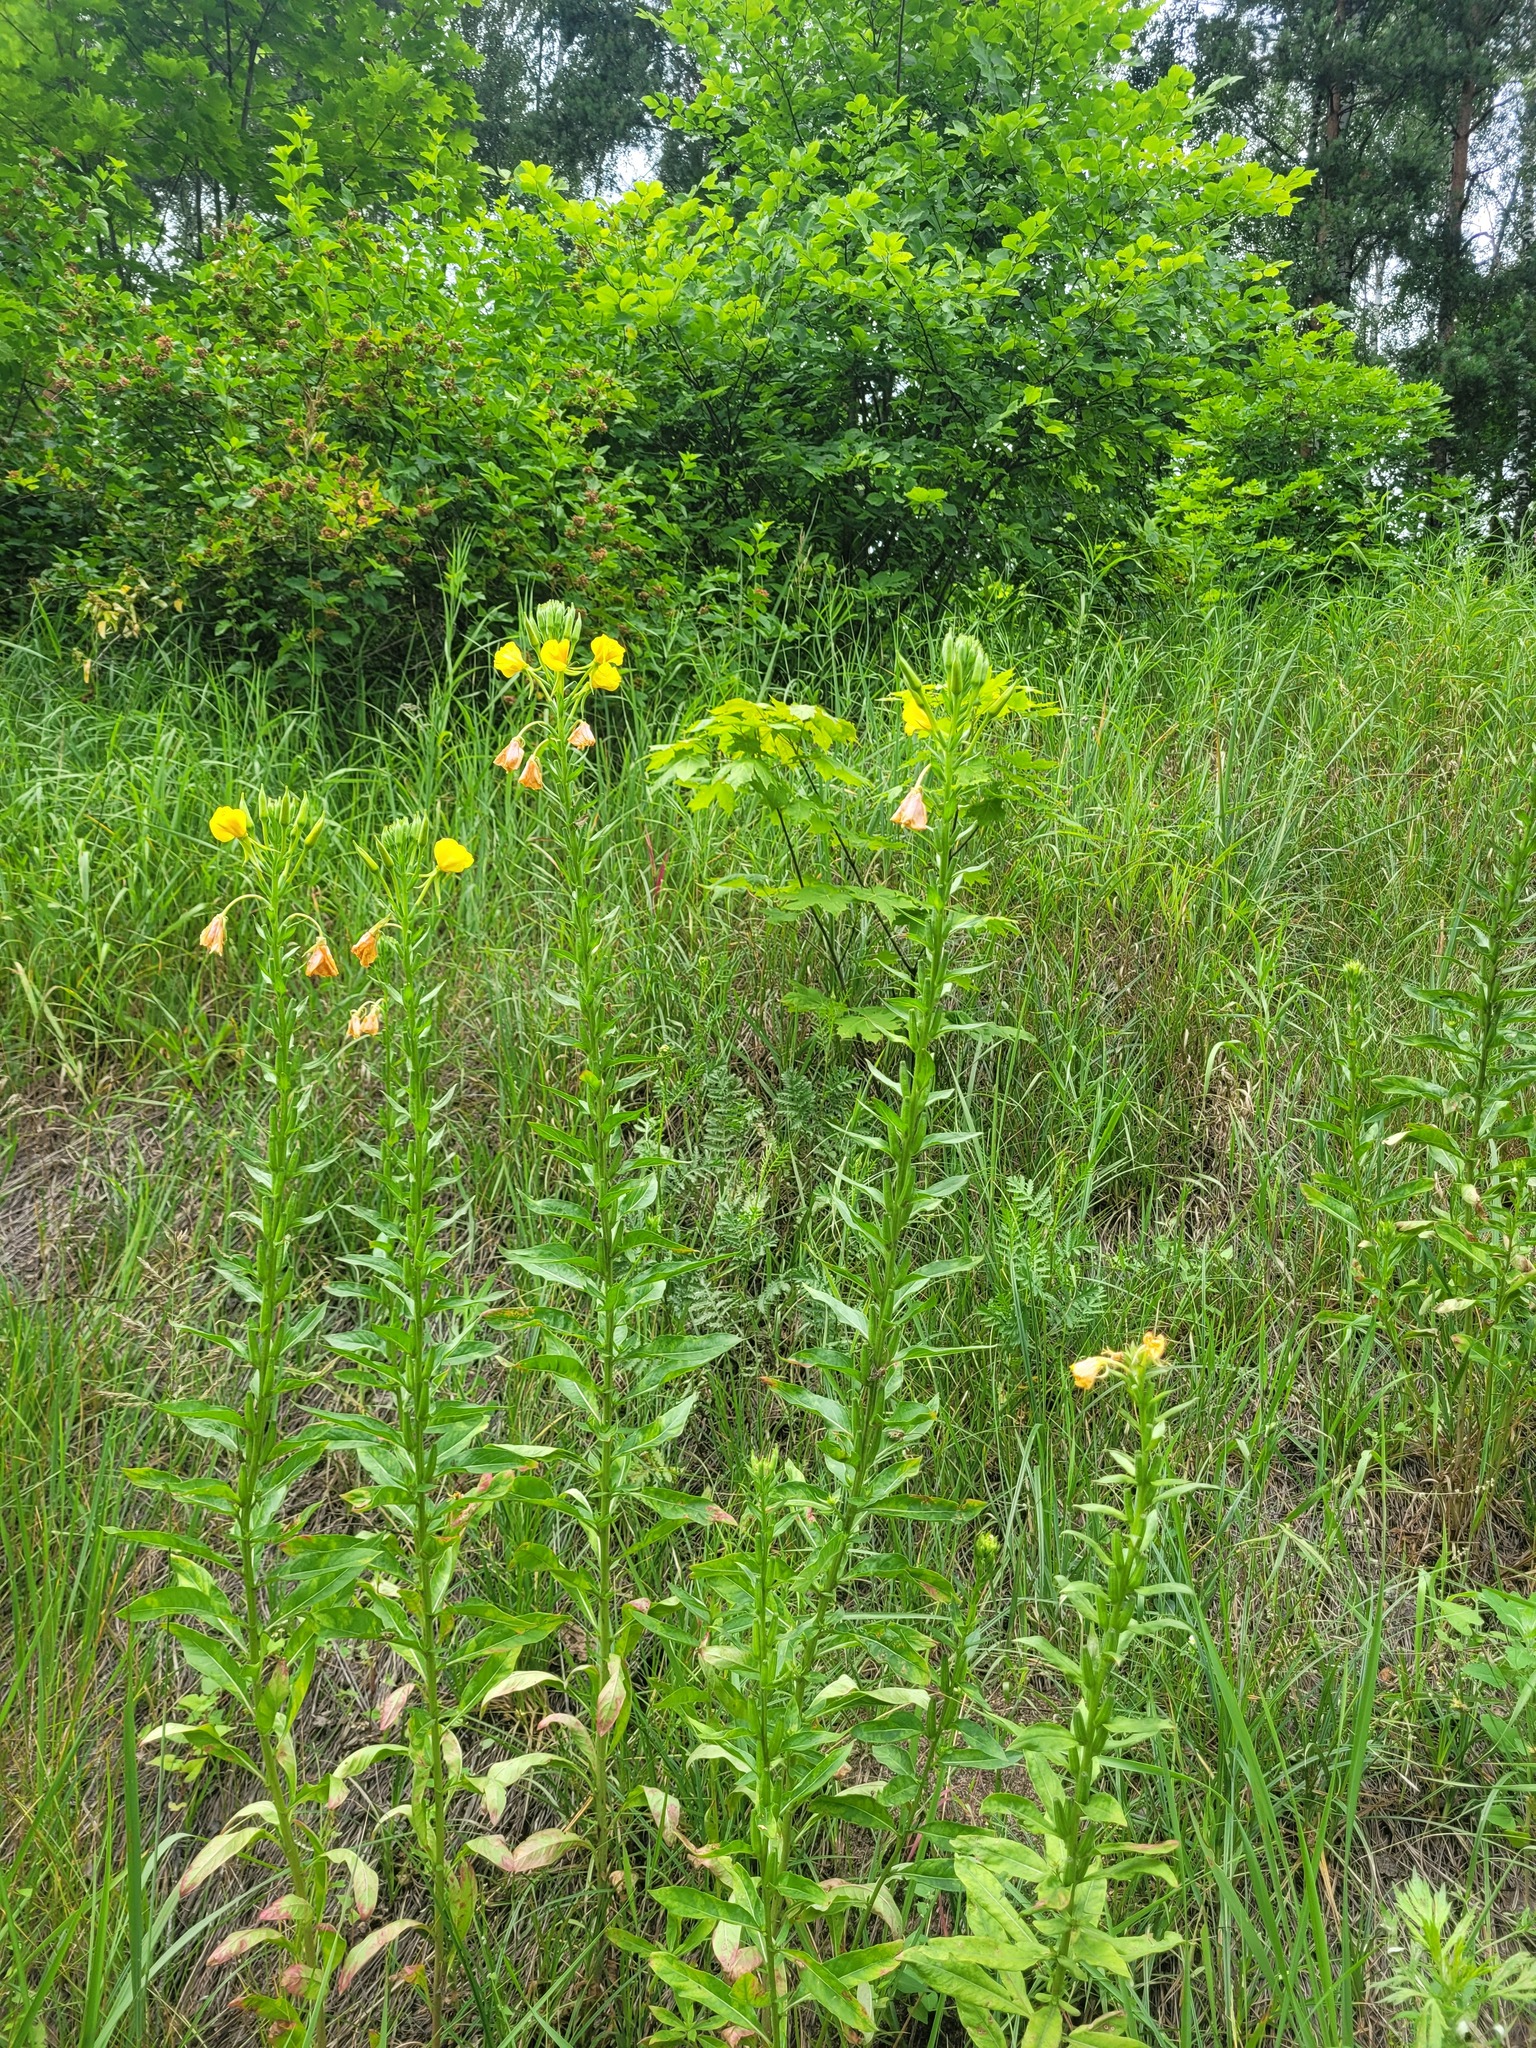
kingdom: Plantae
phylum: Tracheophyta
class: Magnoliopsida
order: Myrtales
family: Onagraceae
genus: Oenothera
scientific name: Oenothera biennis
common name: Common evening-primrose
